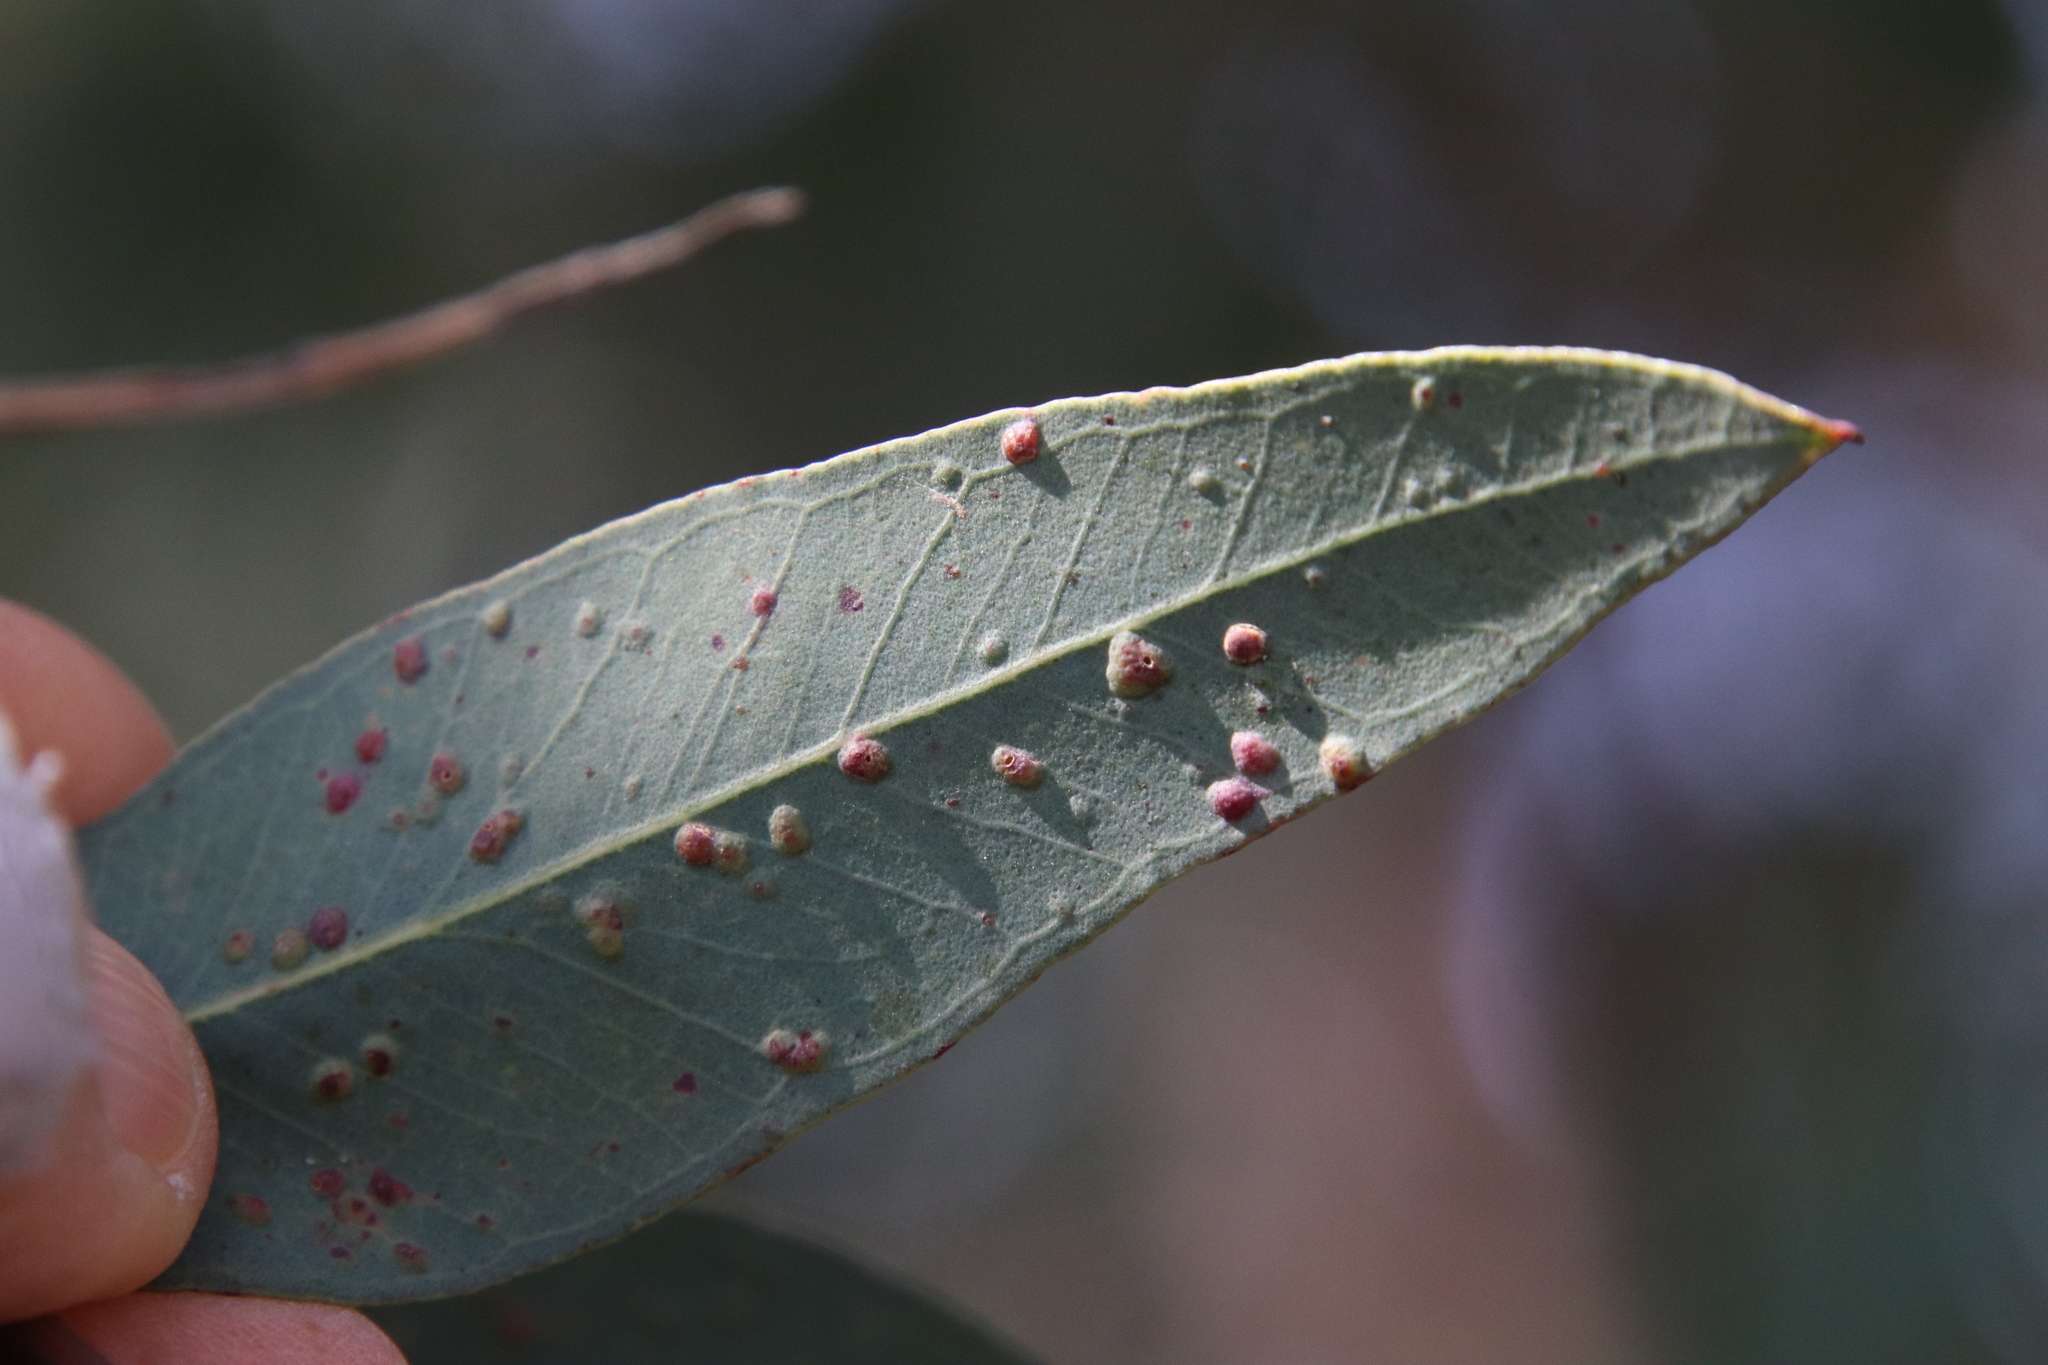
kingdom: Animalia
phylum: Arthropoda
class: Insecta
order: Hymenoptera
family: Eulophidae
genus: Ophelimus
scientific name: Ophelimus maskelli
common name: Gall wasp
